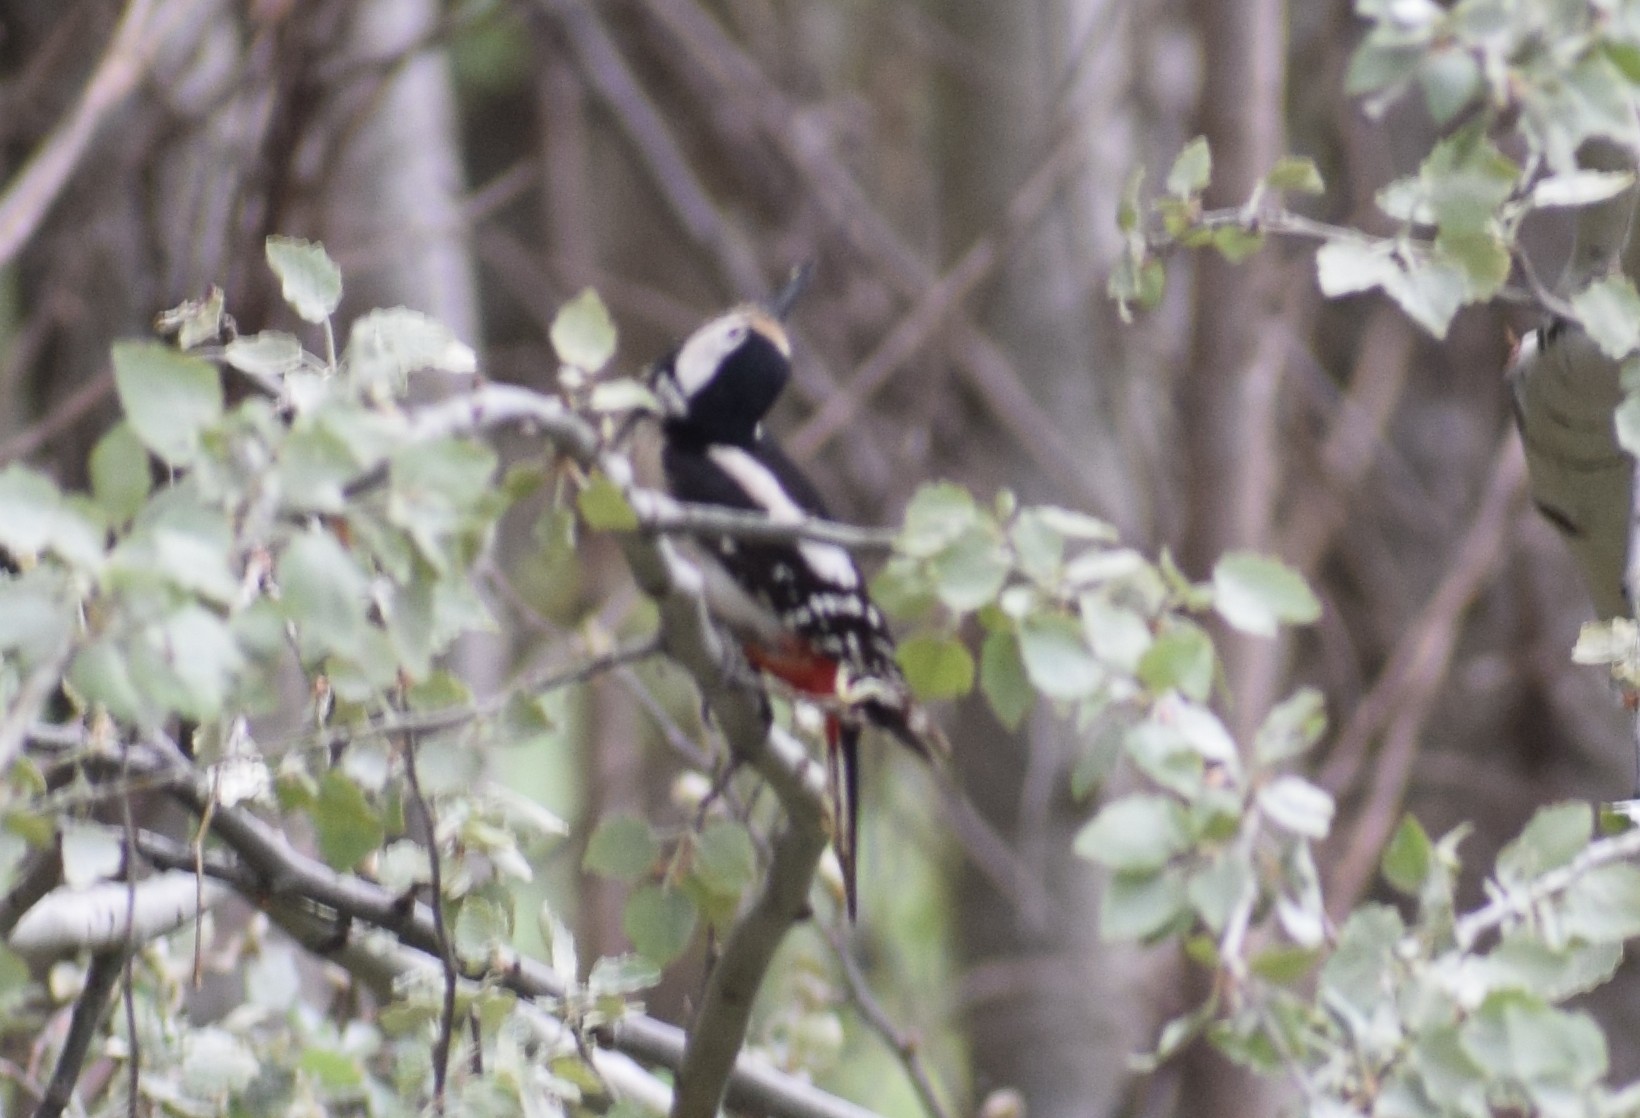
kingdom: Animalia
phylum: Chordata
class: Aves
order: Piciformes
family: Picidae
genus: Dendrocopos
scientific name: Dendrocopos major
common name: Great spotted woodpecker
